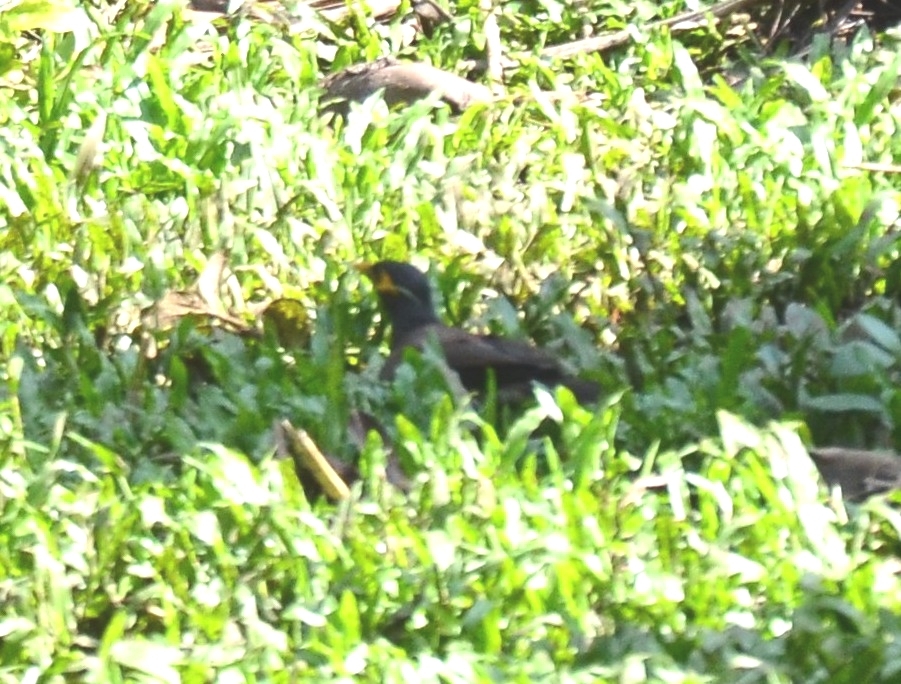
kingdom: Animalia
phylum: Chordata
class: Aves
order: Passeriformes
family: Sturnidae
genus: Acridotheres
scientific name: Acridotheres tristis
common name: Common myna
